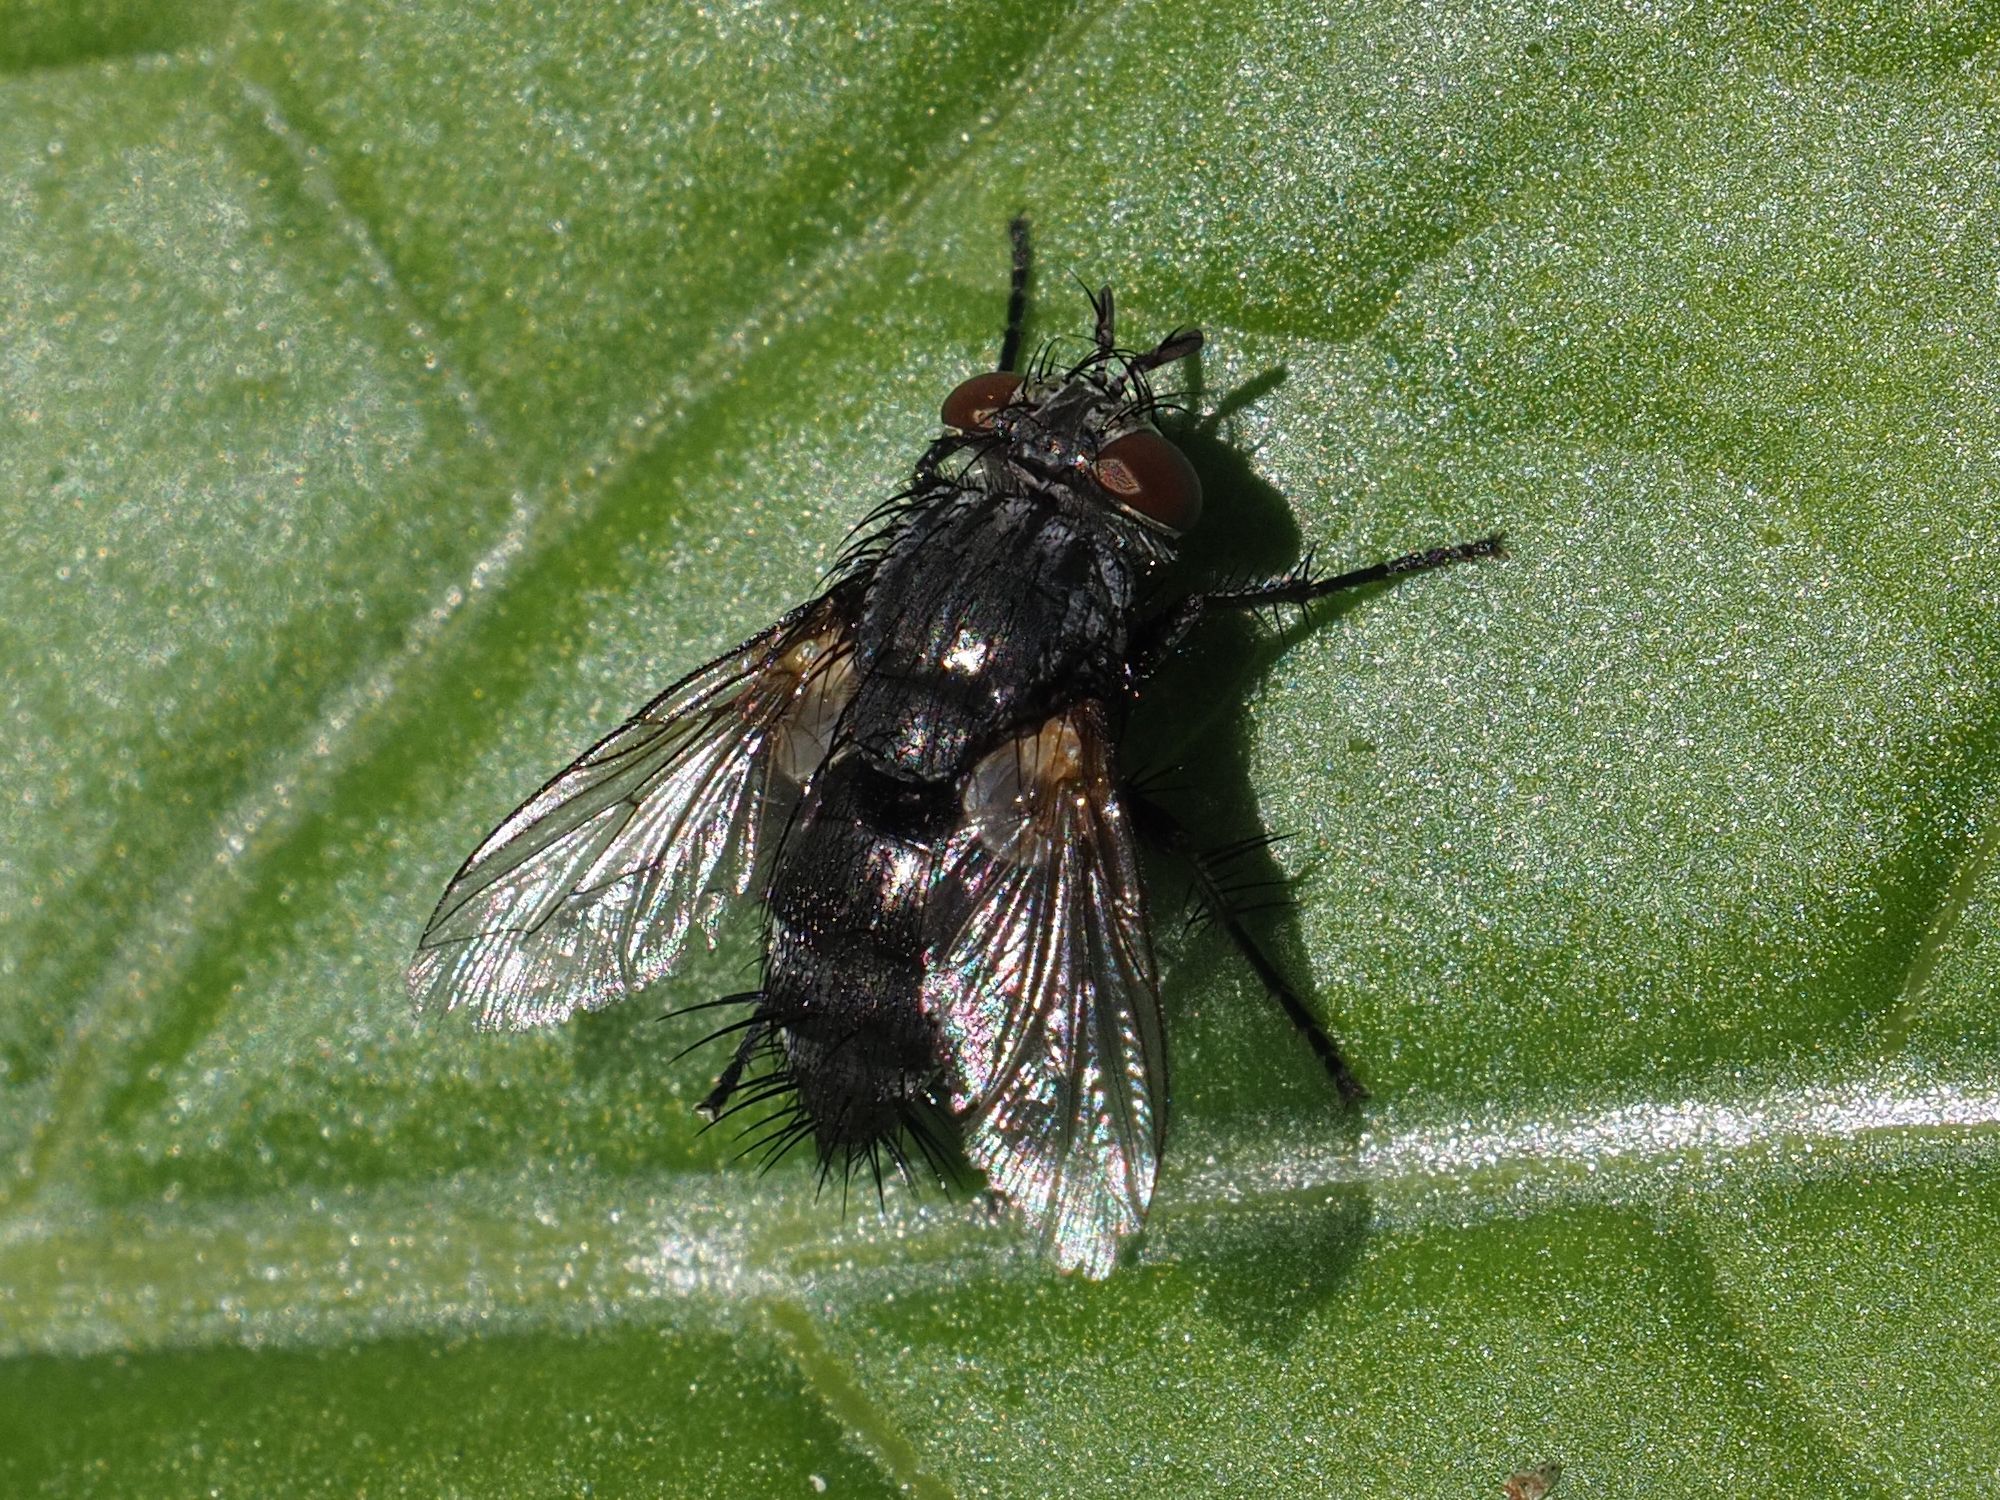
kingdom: Animalia
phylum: Arthropoda
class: Insecta
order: Diptera
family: Tachinidae
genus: Voria
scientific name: Voria ruralis
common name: Parasitic fly
